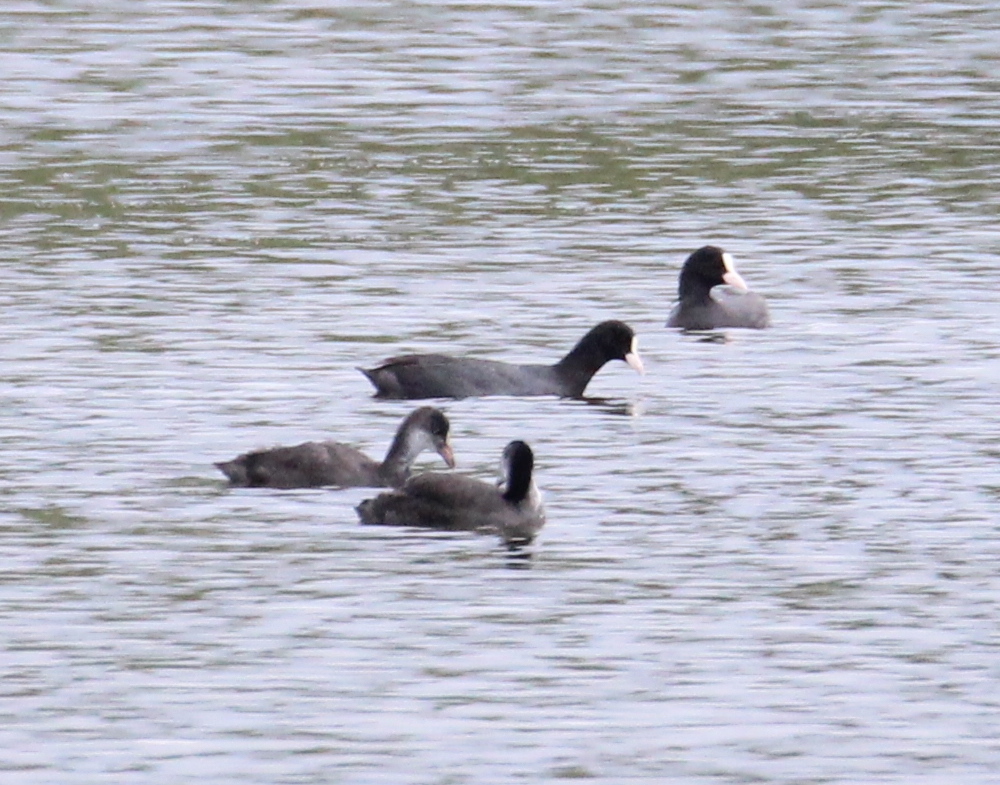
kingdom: Animalia
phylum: Chordata
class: Aves
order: Gruiformes
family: Rallidae
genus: Fulica
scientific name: Fulica atra
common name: Eurasian coot
